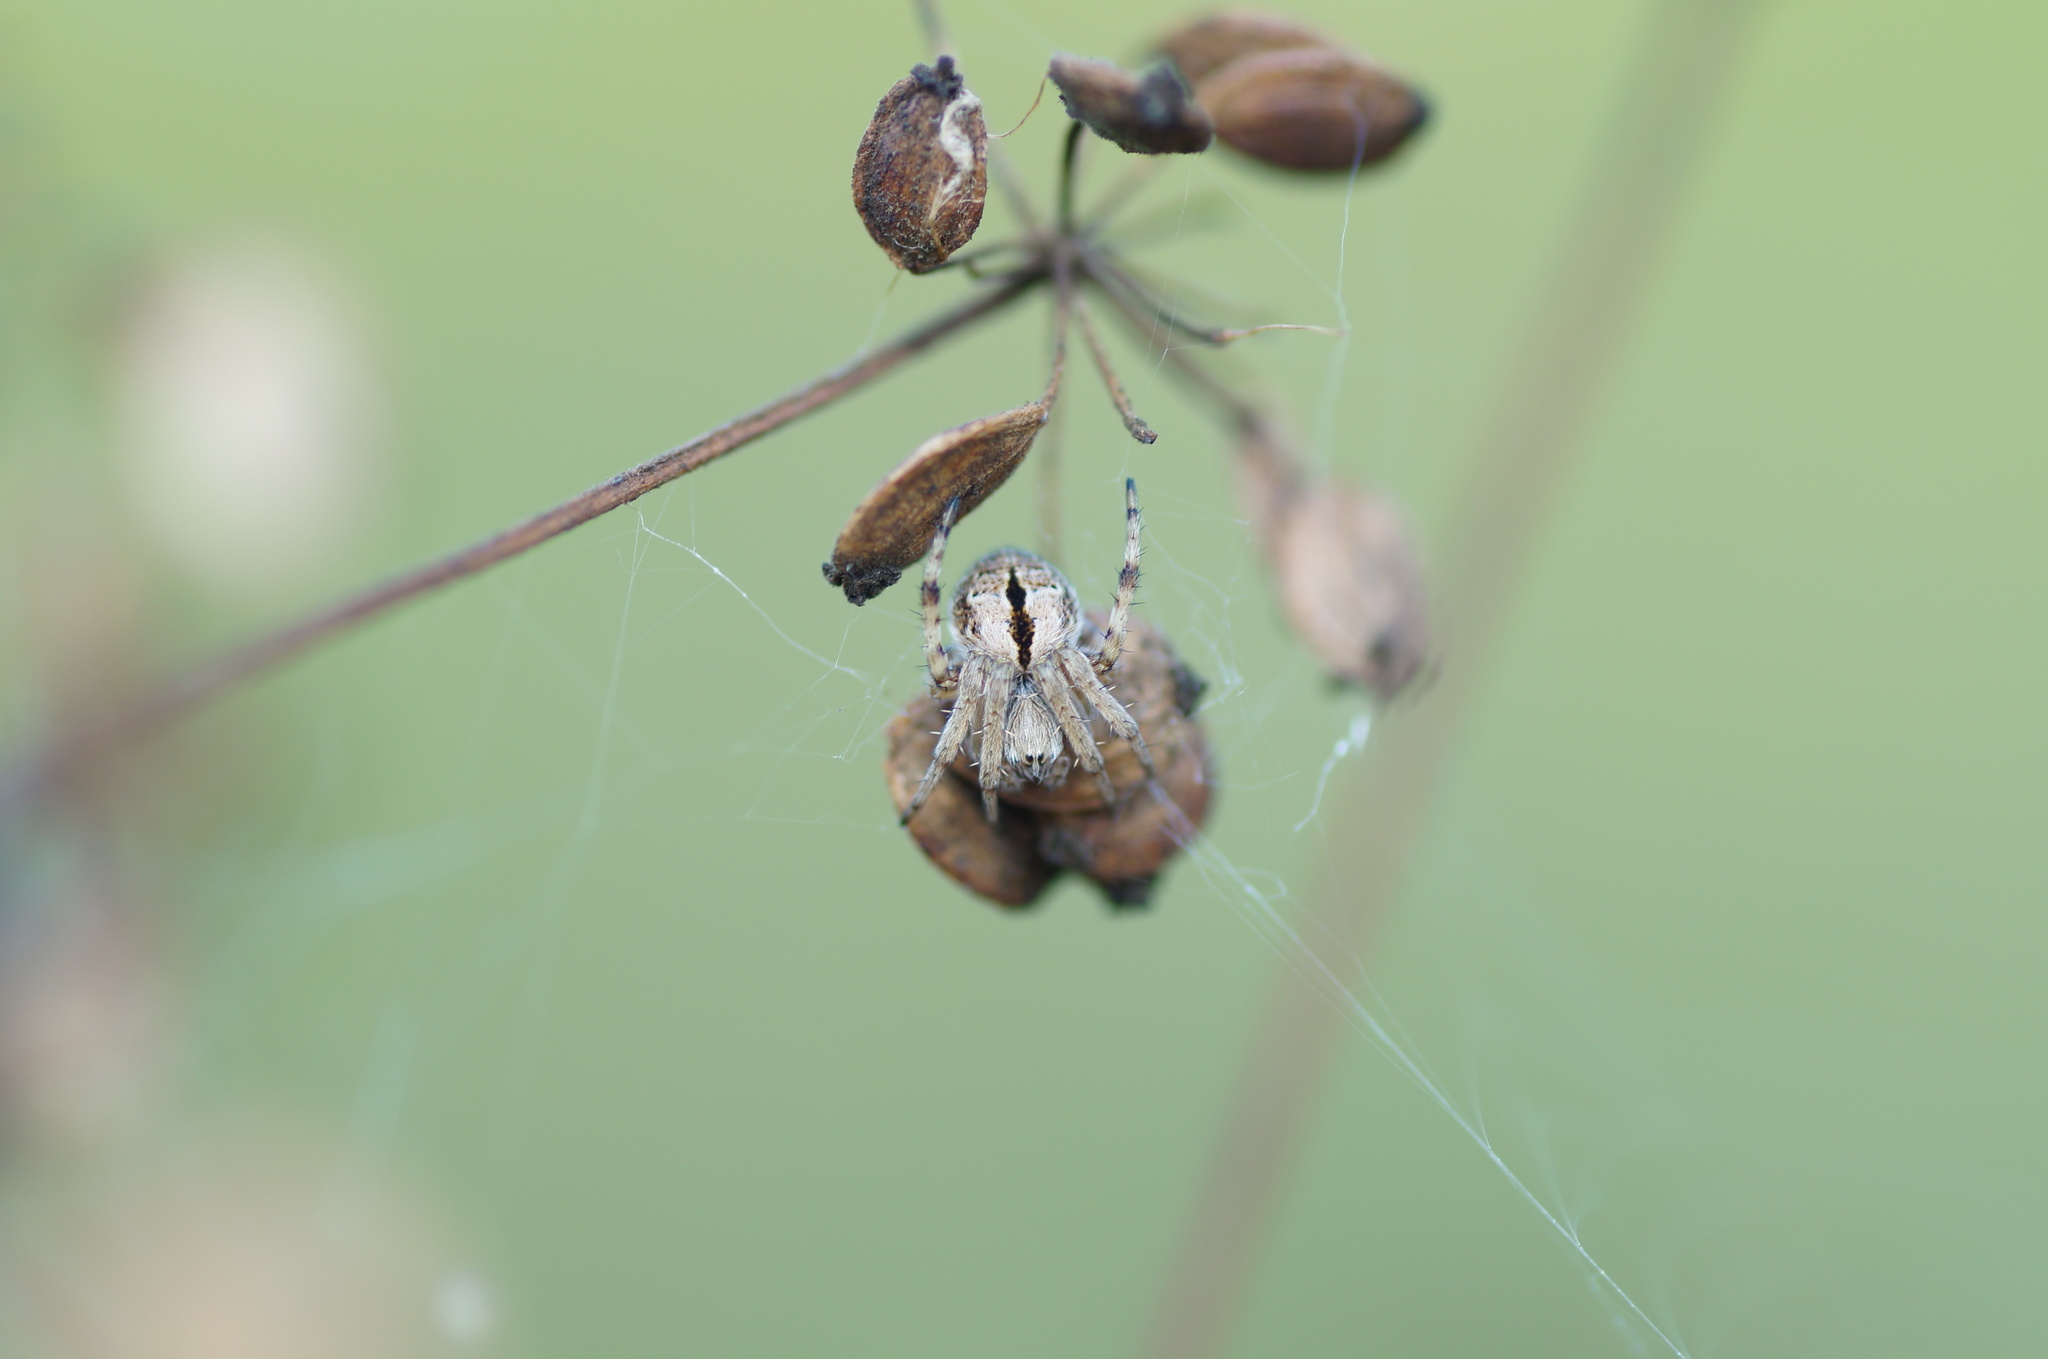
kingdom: Animalia
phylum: Arthropoda
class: Arachnida
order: Araneae
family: Araneidae
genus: Agalenatea
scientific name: Agalenatea redii
